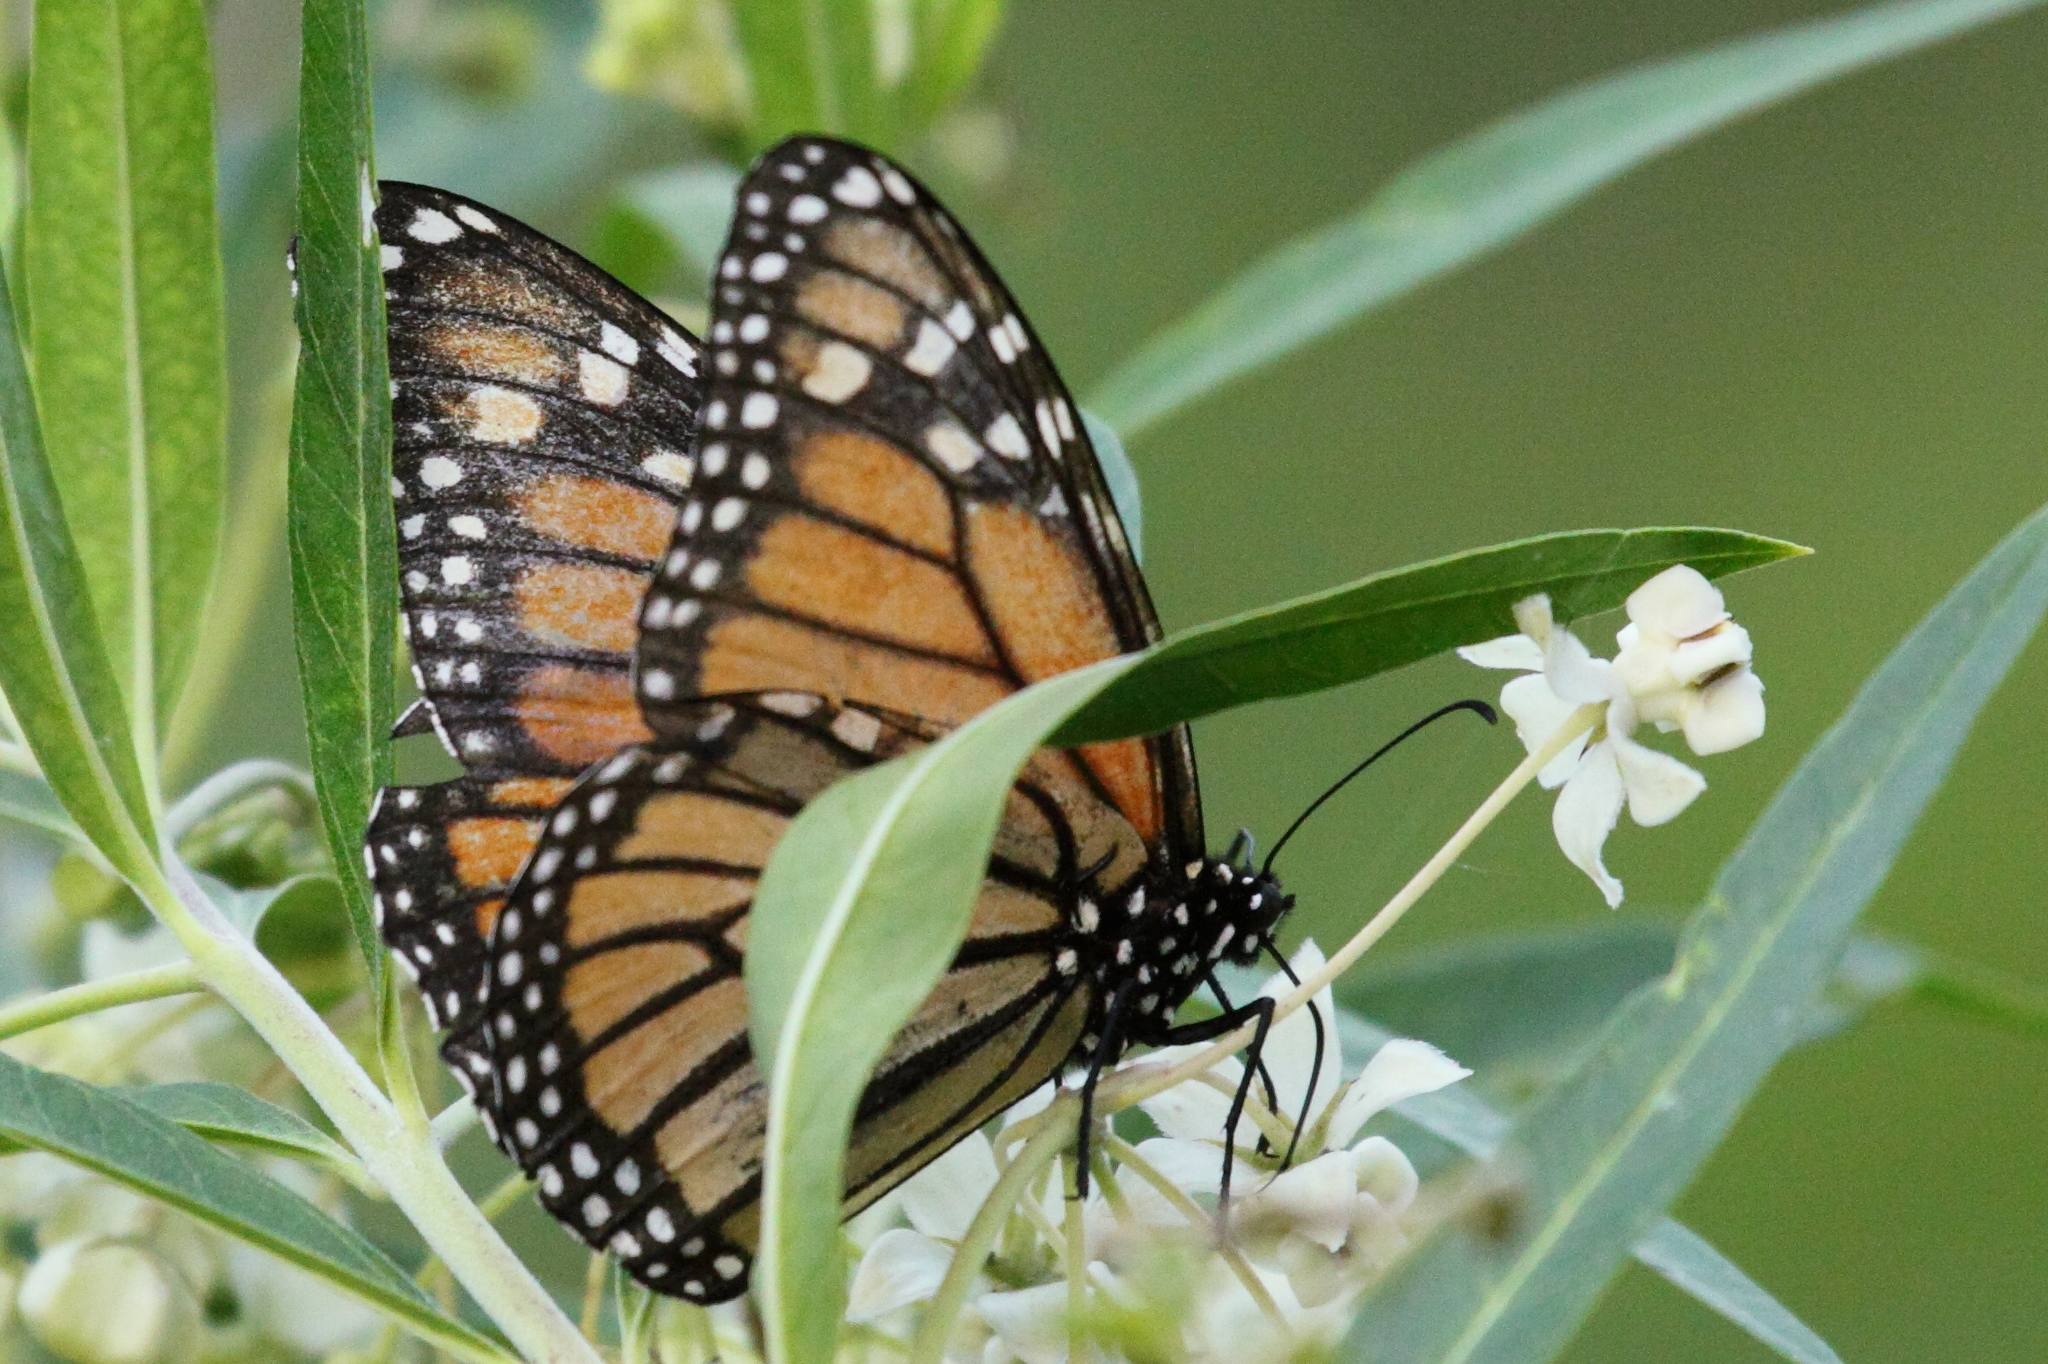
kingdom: Animalia
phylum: Arthropoda
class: Insecta
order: Lepidoptera
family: Nymphalidae
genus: Danaus
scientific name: Danaus plexippus
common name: Monarch
